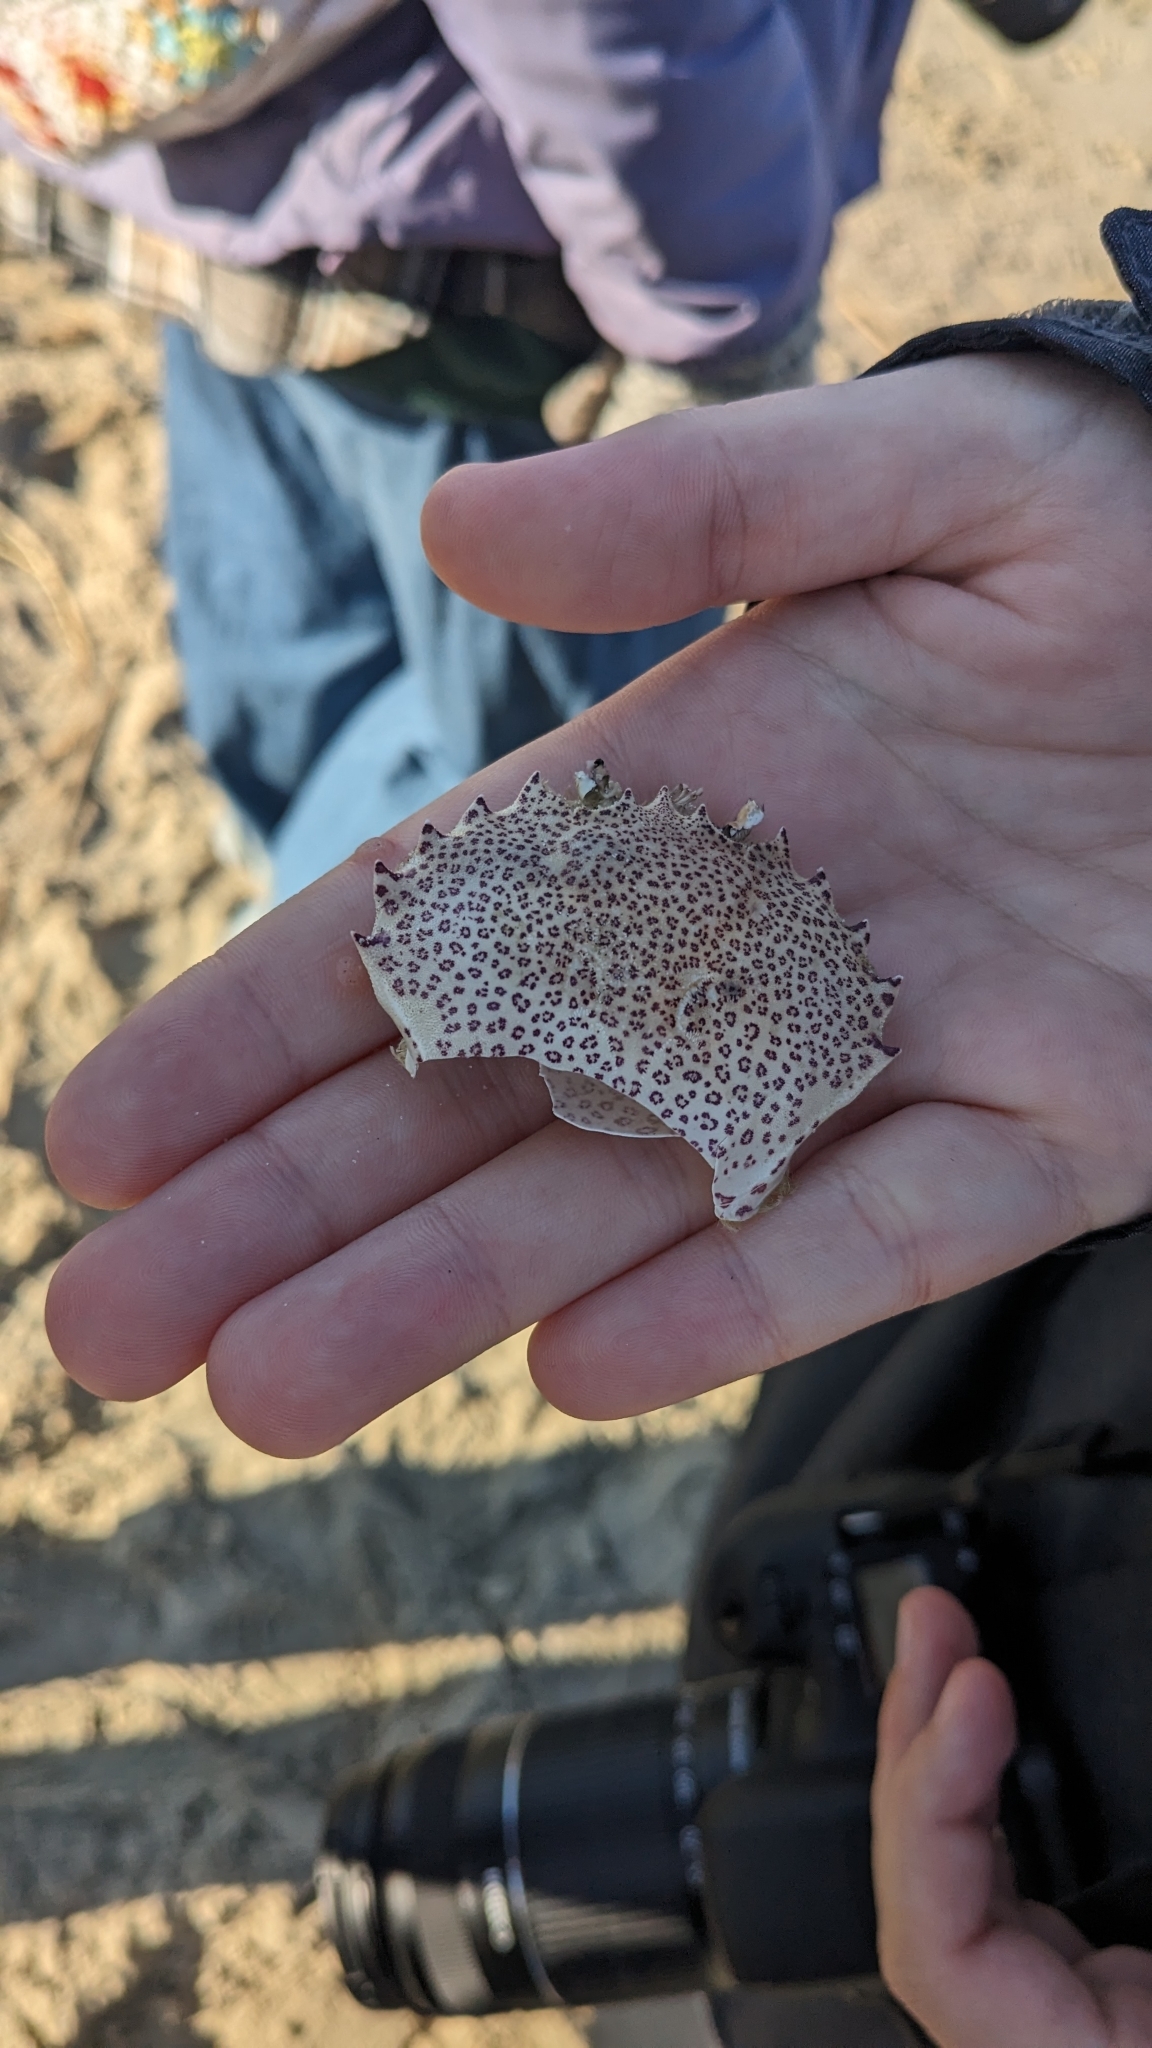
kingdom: Animalia
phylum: Arthropoda
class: Malacostraca
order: Decapoda
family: Ovalipidae
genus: Ovalipes
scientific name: Ovalipes ocellatus
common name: Lady crab
